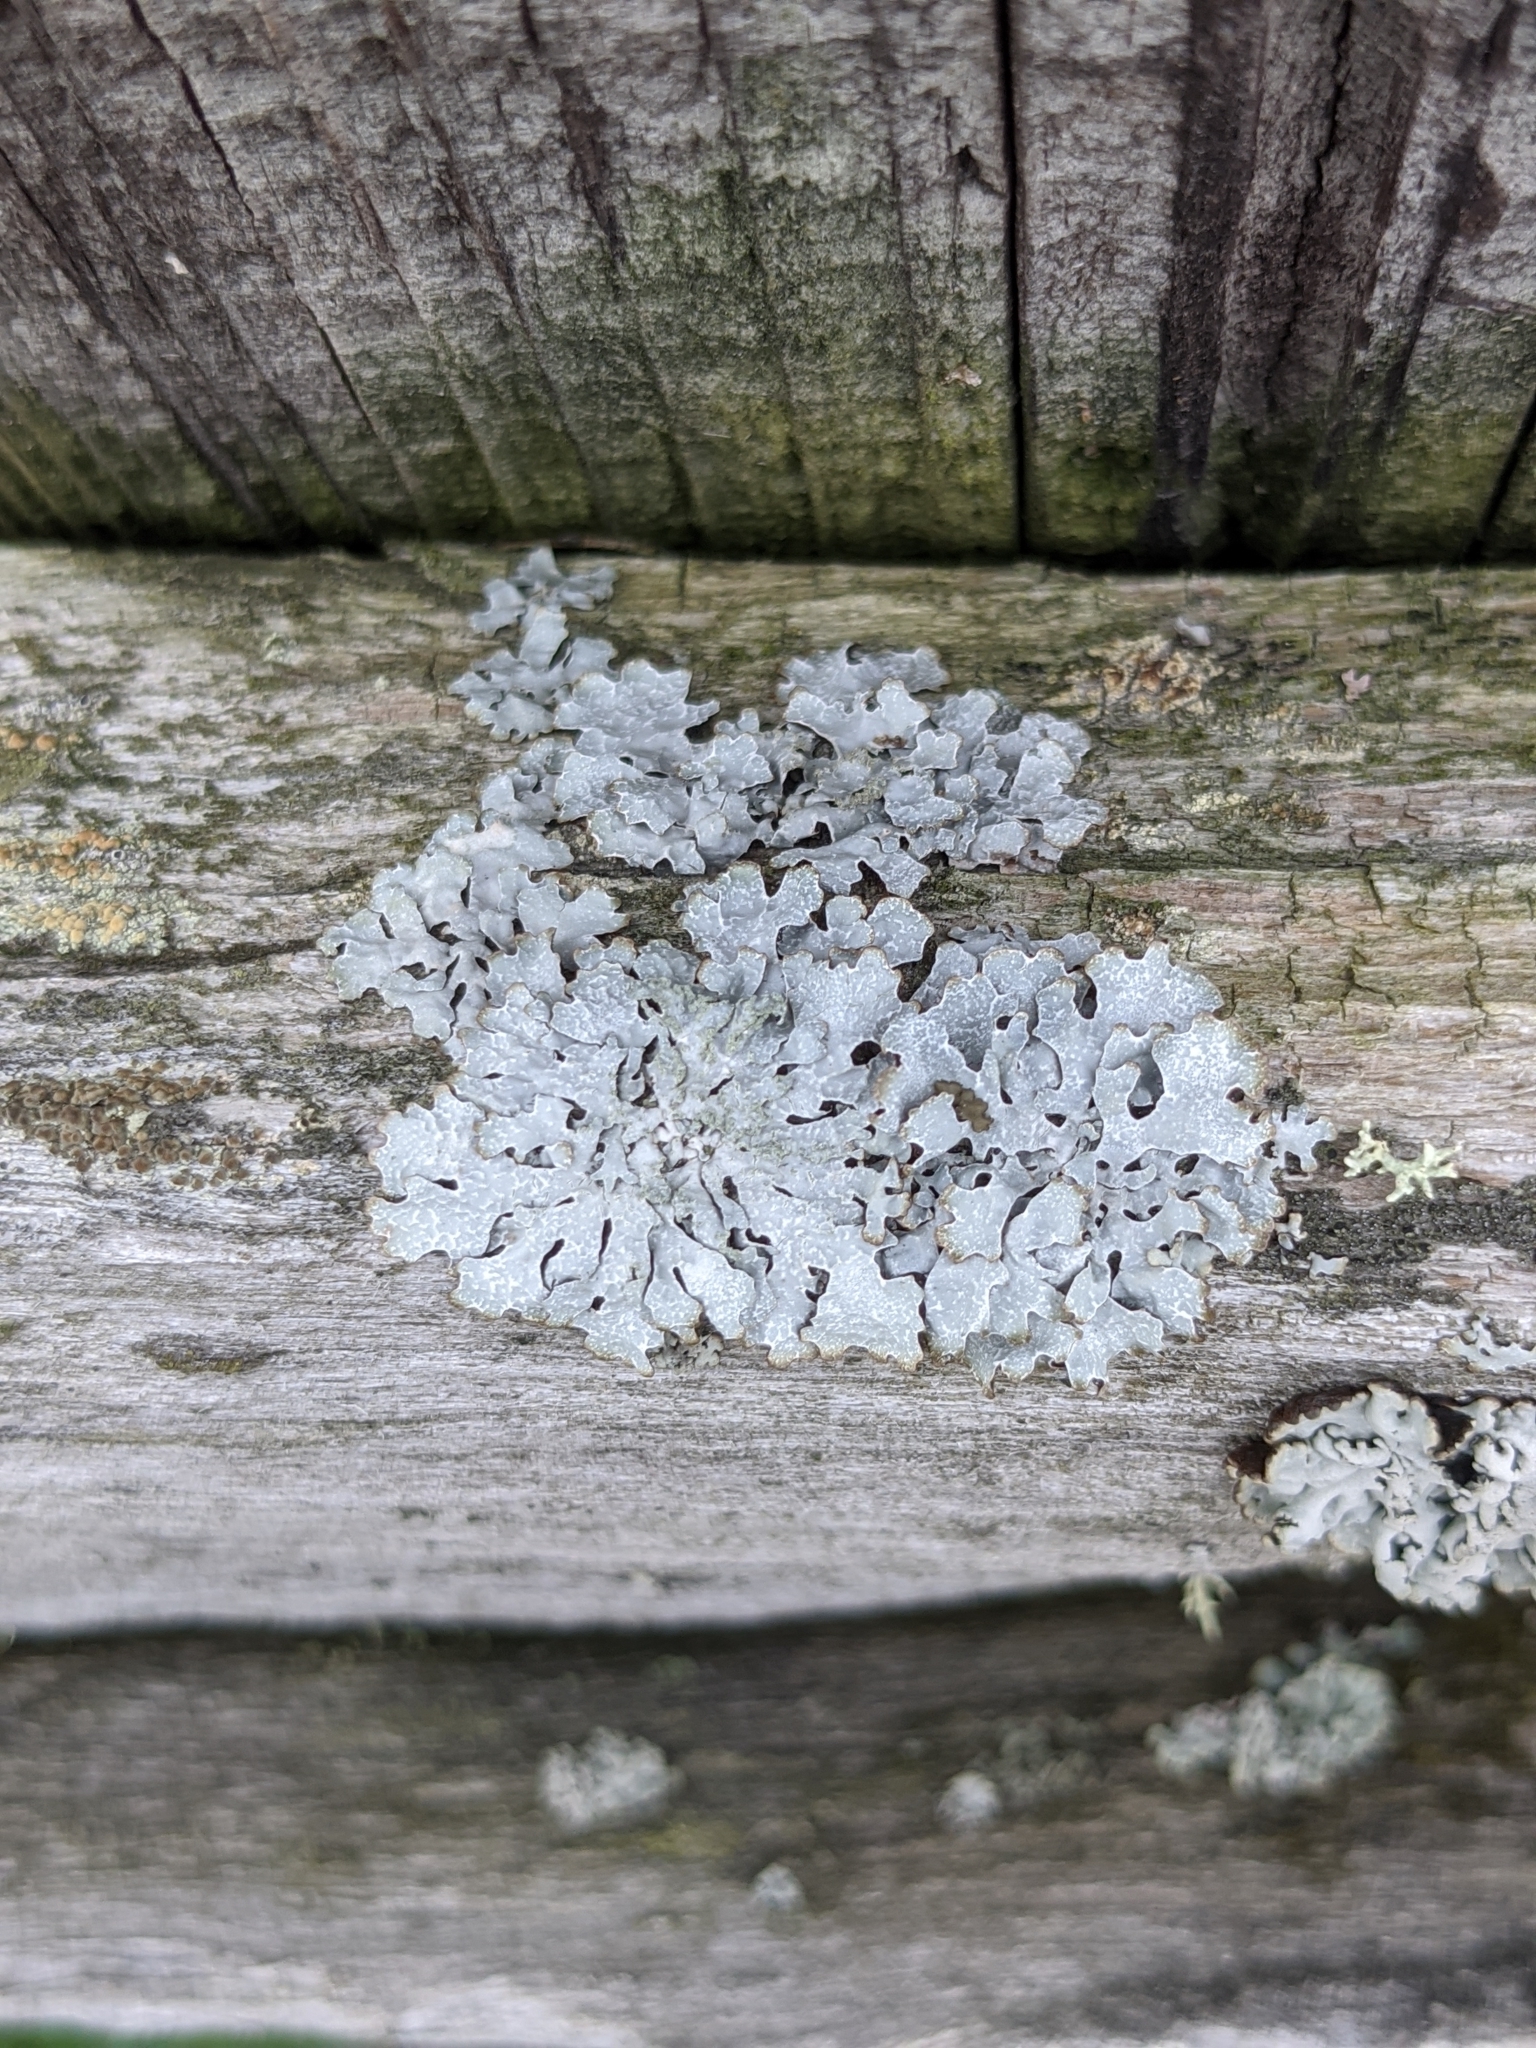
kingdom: Fungi
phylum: Ascomycota
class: Lecanoromycetes
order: Lecanorales
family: Parmeliaceae
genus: Parmelia
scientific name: Parmelia sulcata
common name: Netted shield lichen
